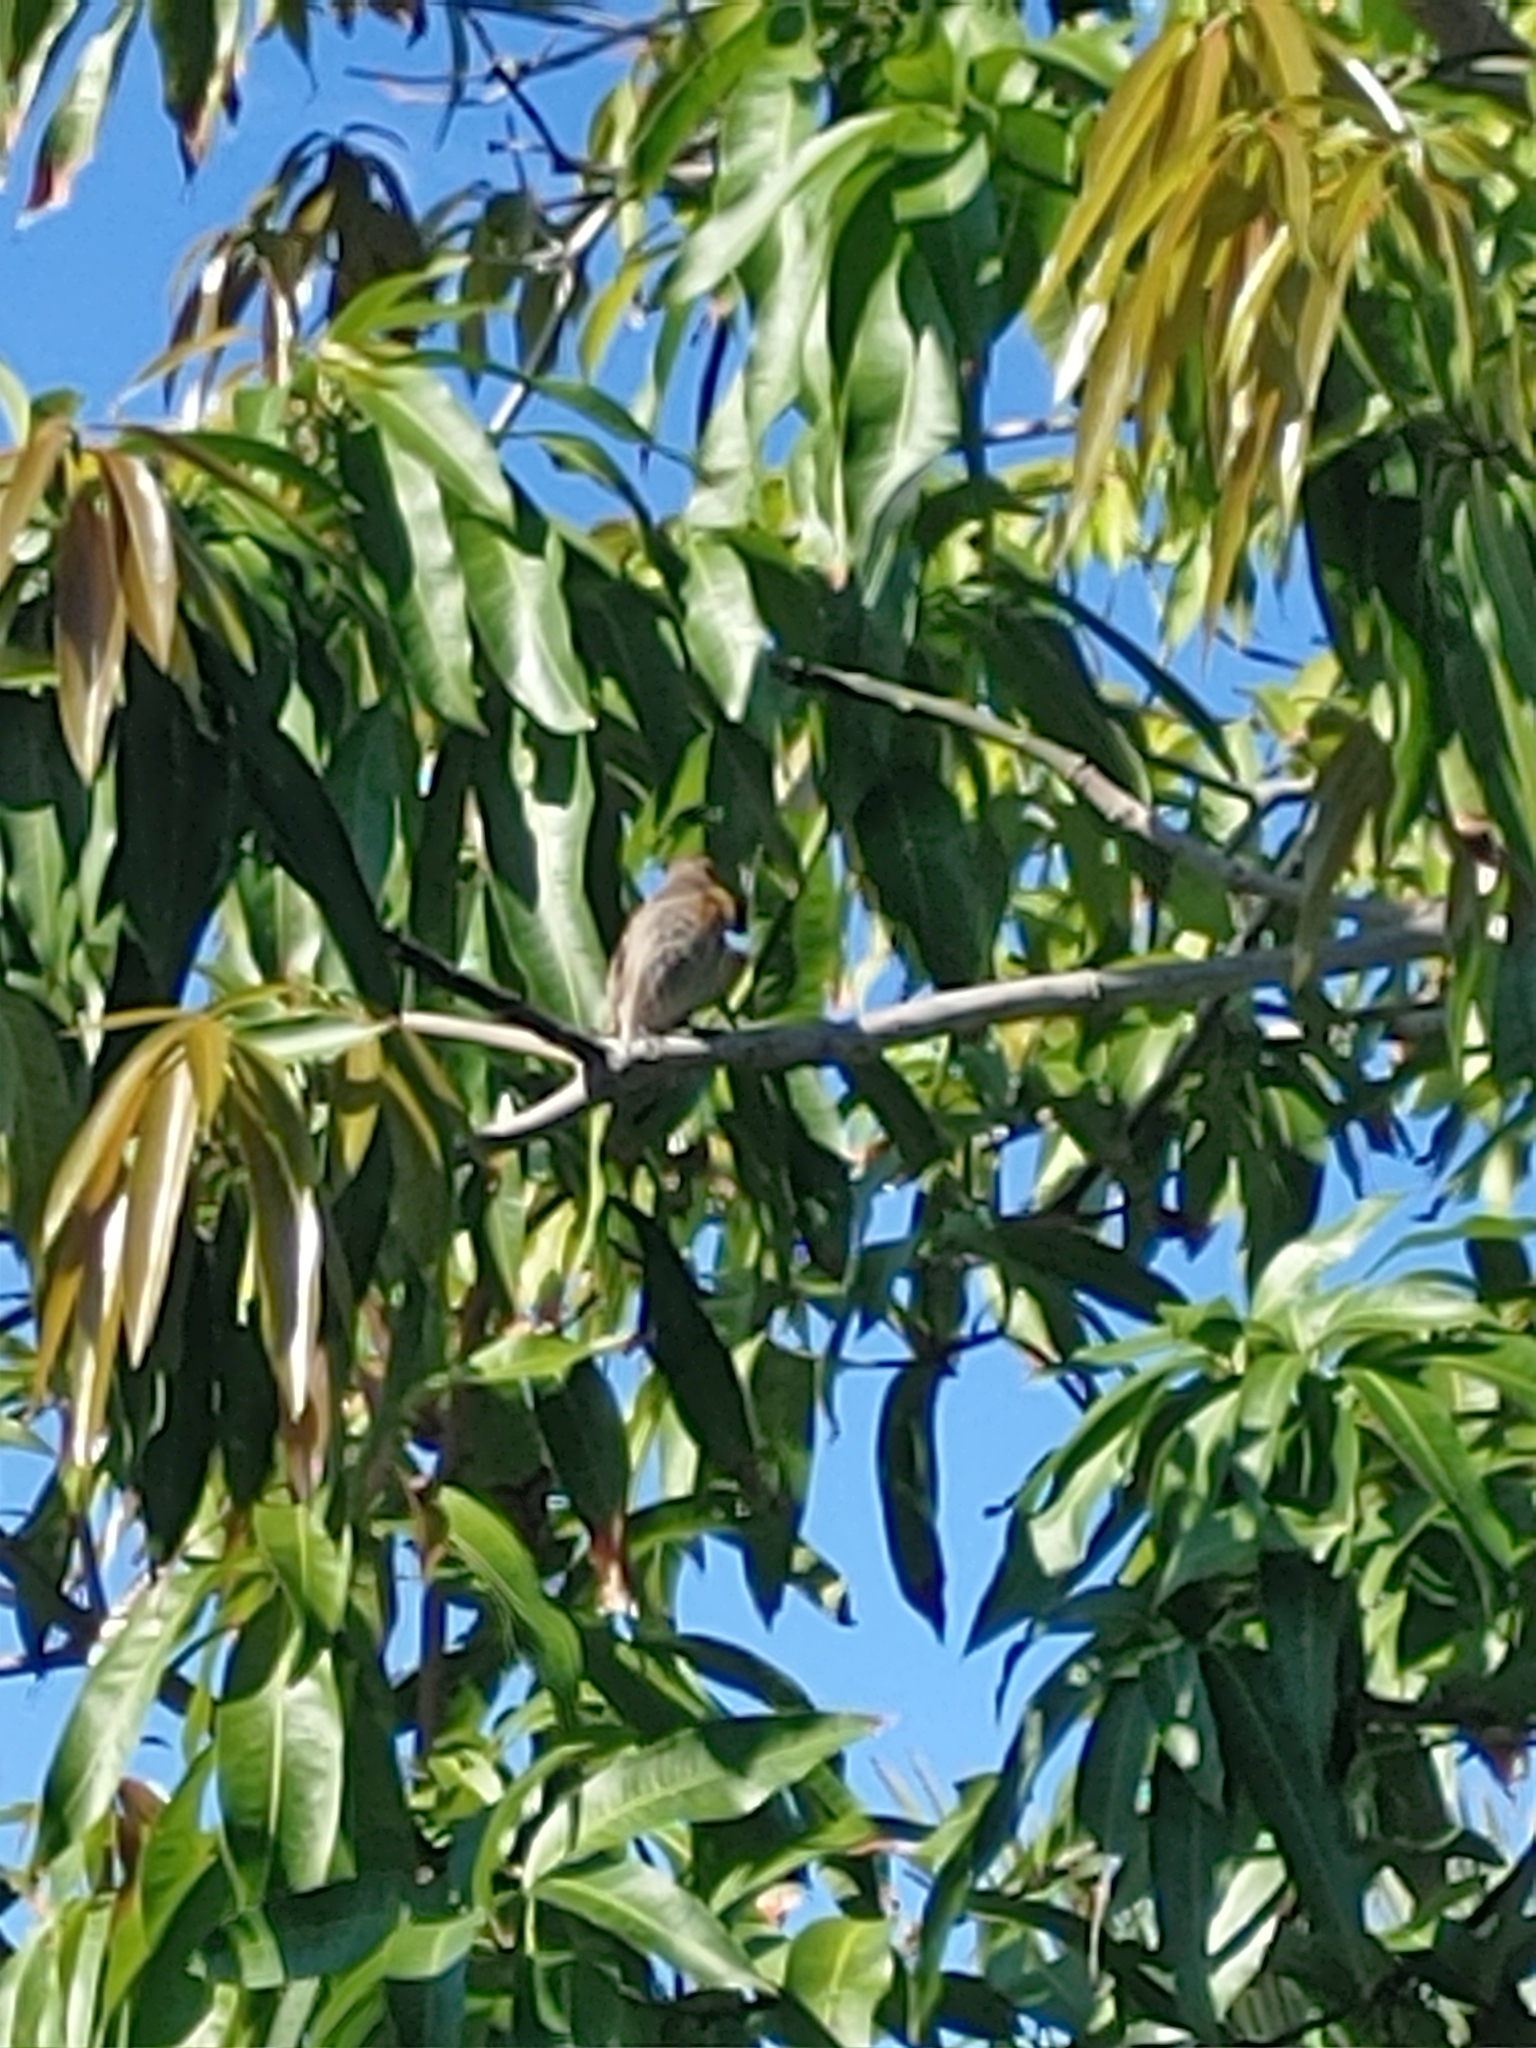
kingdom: Animalia
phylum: Chordata
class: Aves
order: Passeriformes
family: Fringillidae
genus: Haemorhous
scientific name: Haemorhous mexicanus
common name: House finch
